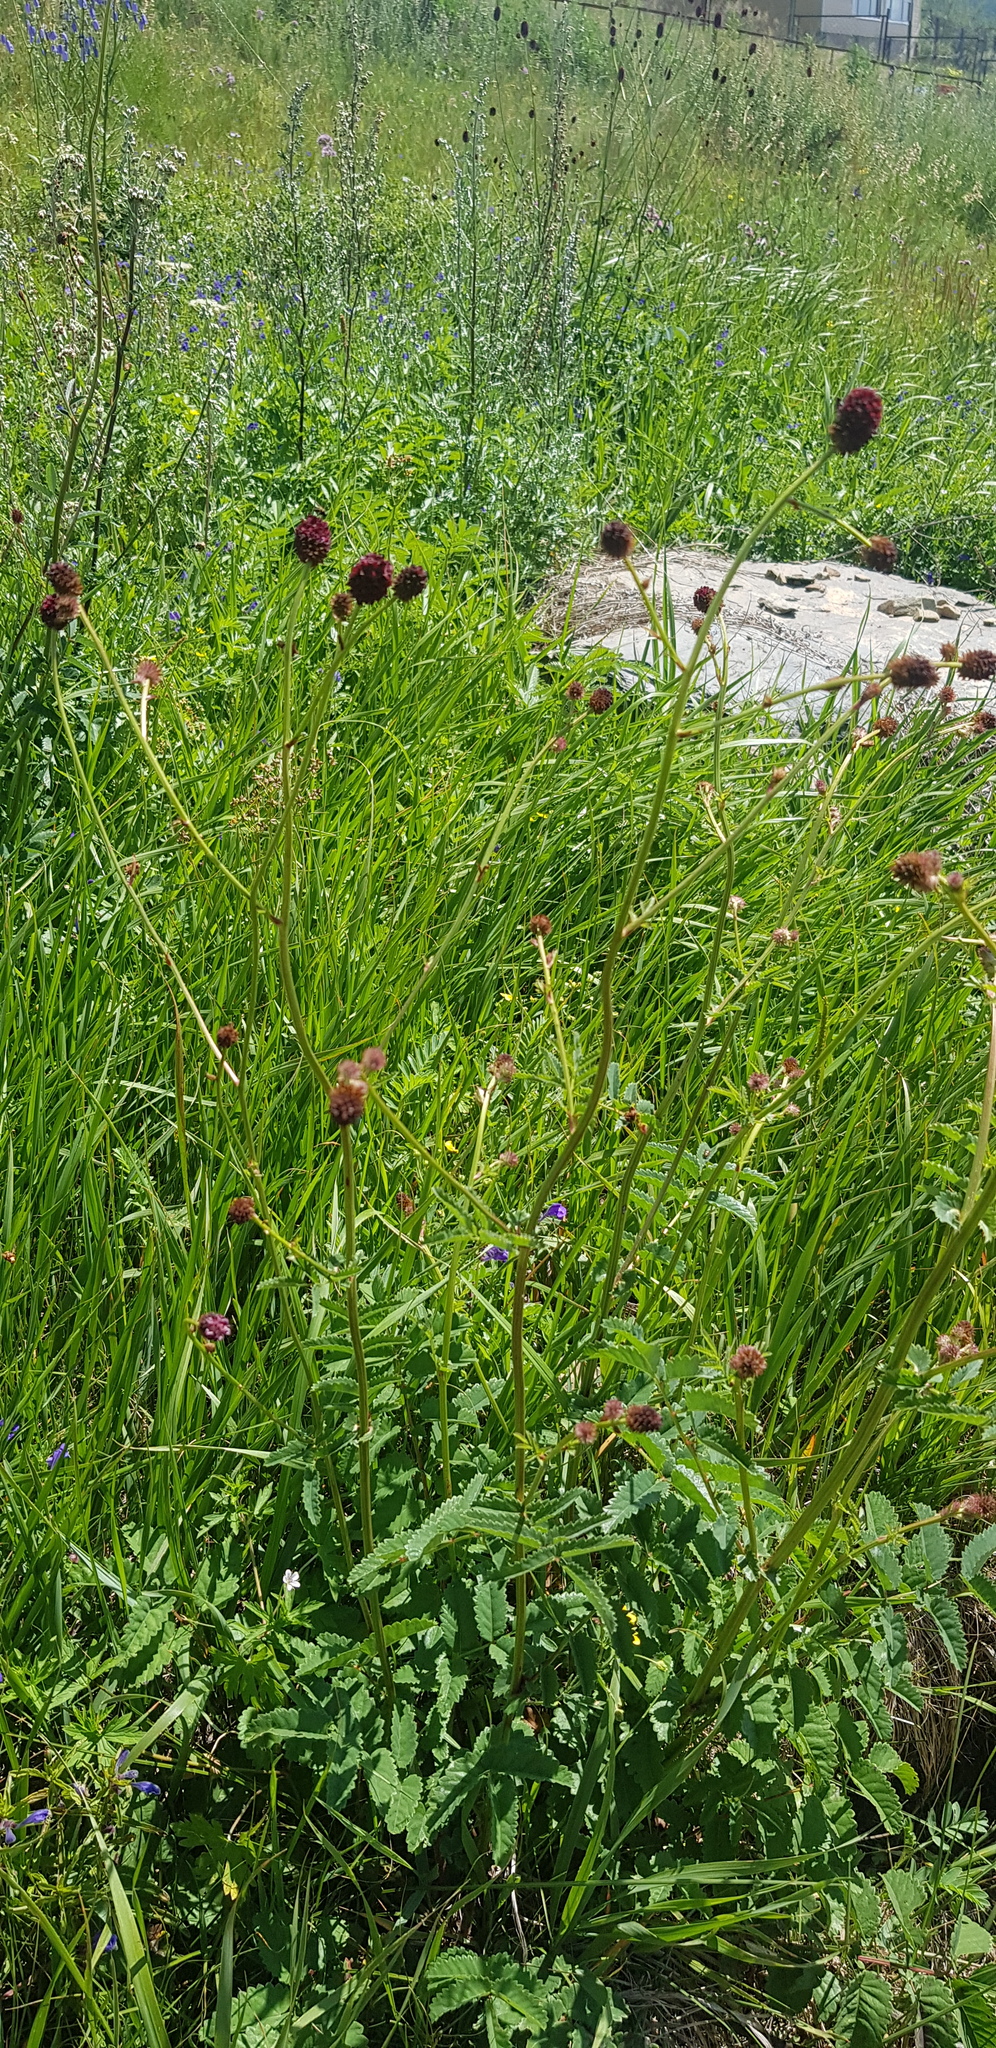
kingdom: Plantae
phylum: Tracheophyta
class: Magnoliopsida
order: Rosales
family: Rosaceae
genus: Sanguisorba
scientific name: Sanguisorba officinalis
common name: Great burnet
